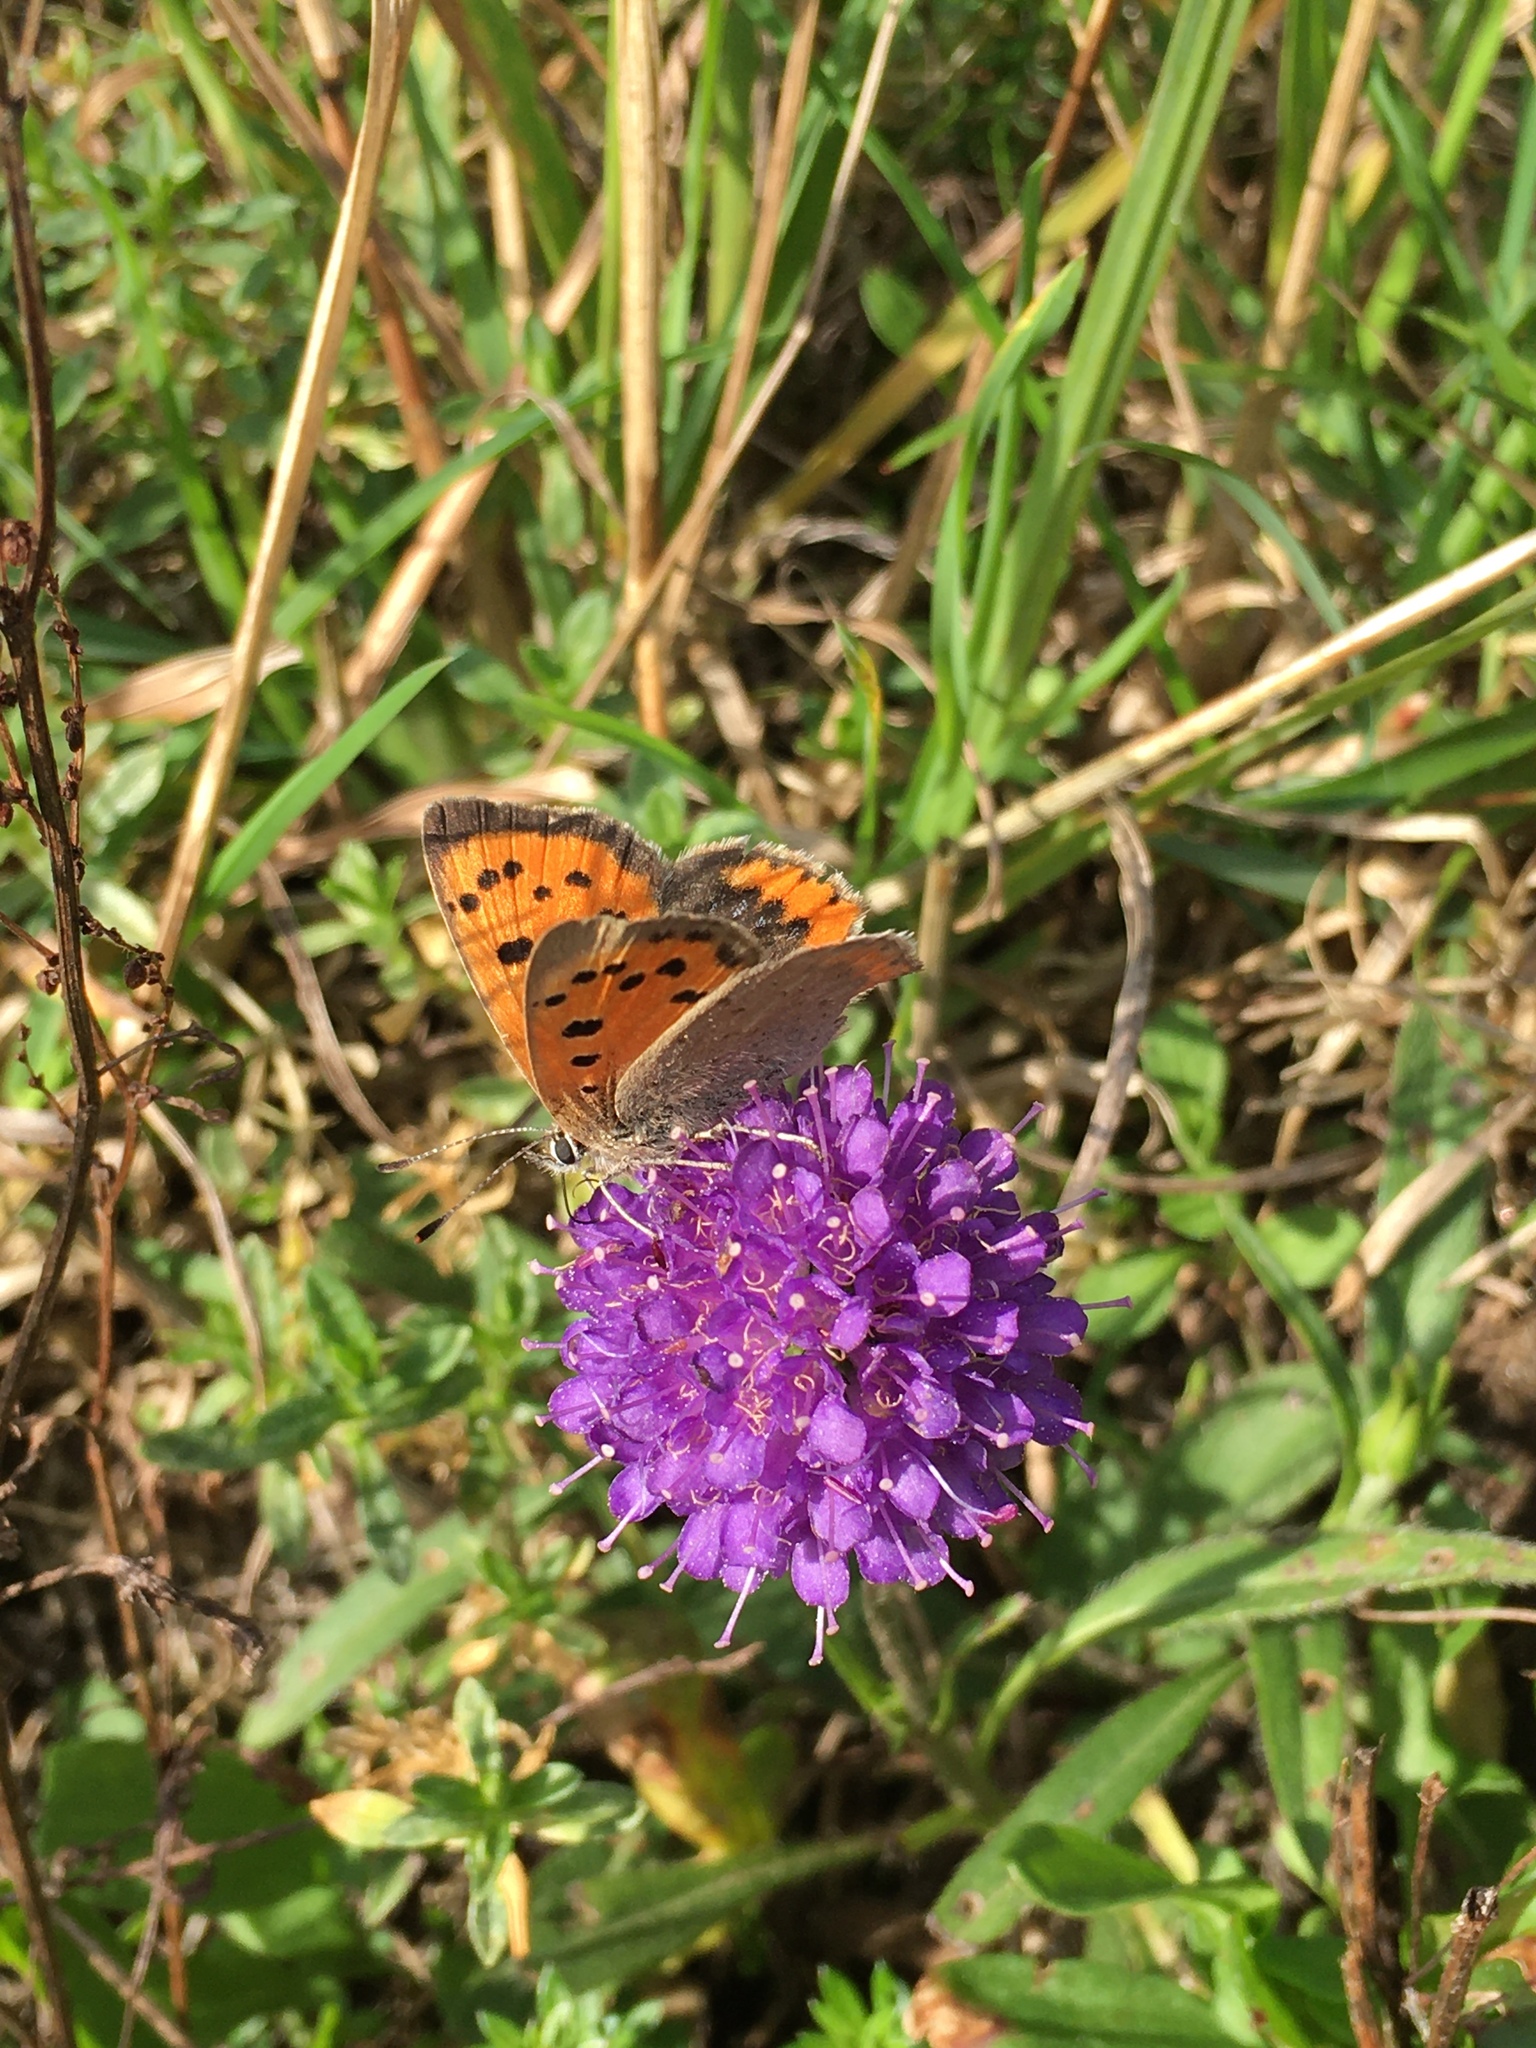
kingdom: Plantae
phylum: Tracheophyta
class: Magnoliopsida
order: Dipsacales
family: Caprifoliaceae
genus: Succisa
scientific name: Succisa pratensis
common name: Devil's-bit
